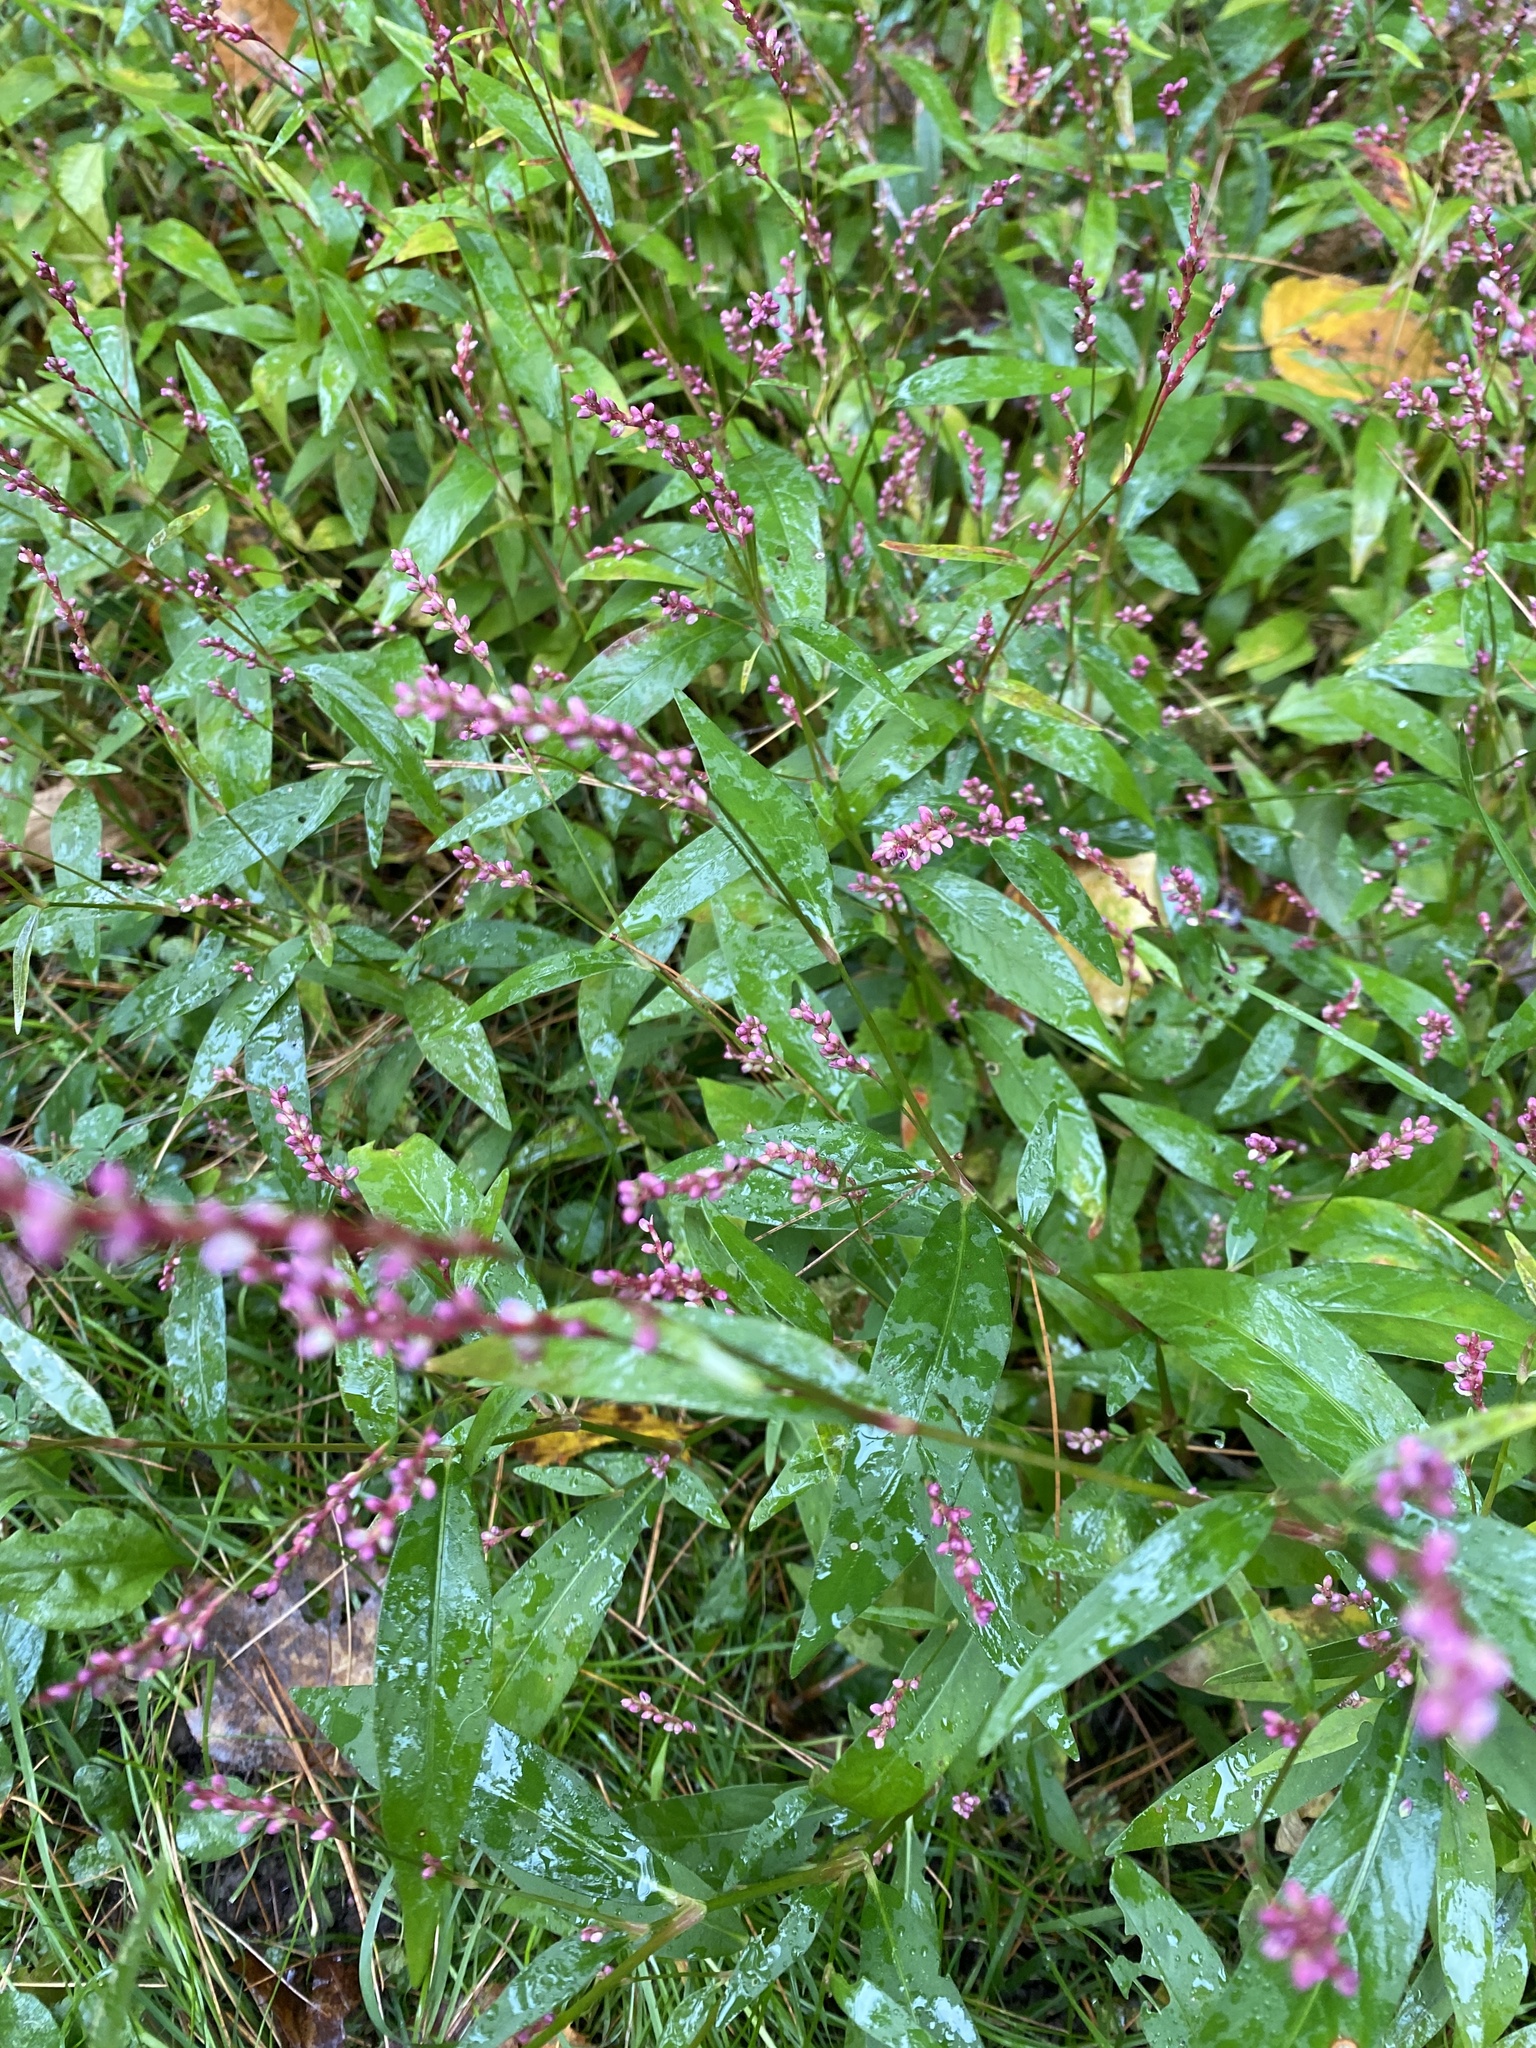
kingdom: Plantae
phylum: Tracheophyta
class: Magnoliopsida
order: Caryophyllales
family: Polygonaceae
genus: Persicaria
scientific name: Persicaria longiseta
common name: Bristly lady's-thumb
